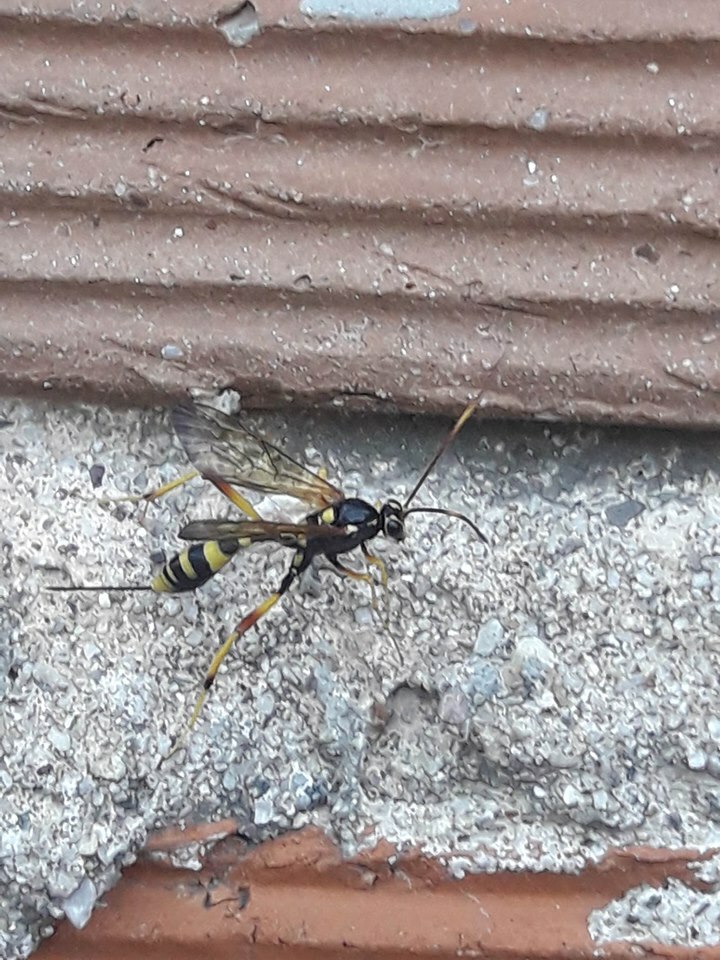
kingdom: Animalia
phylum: Arthropoda
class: Insecta
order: Hymenoptera
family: Ichneumonidae
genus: Acroricnus
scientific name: Acroricnus seductor
